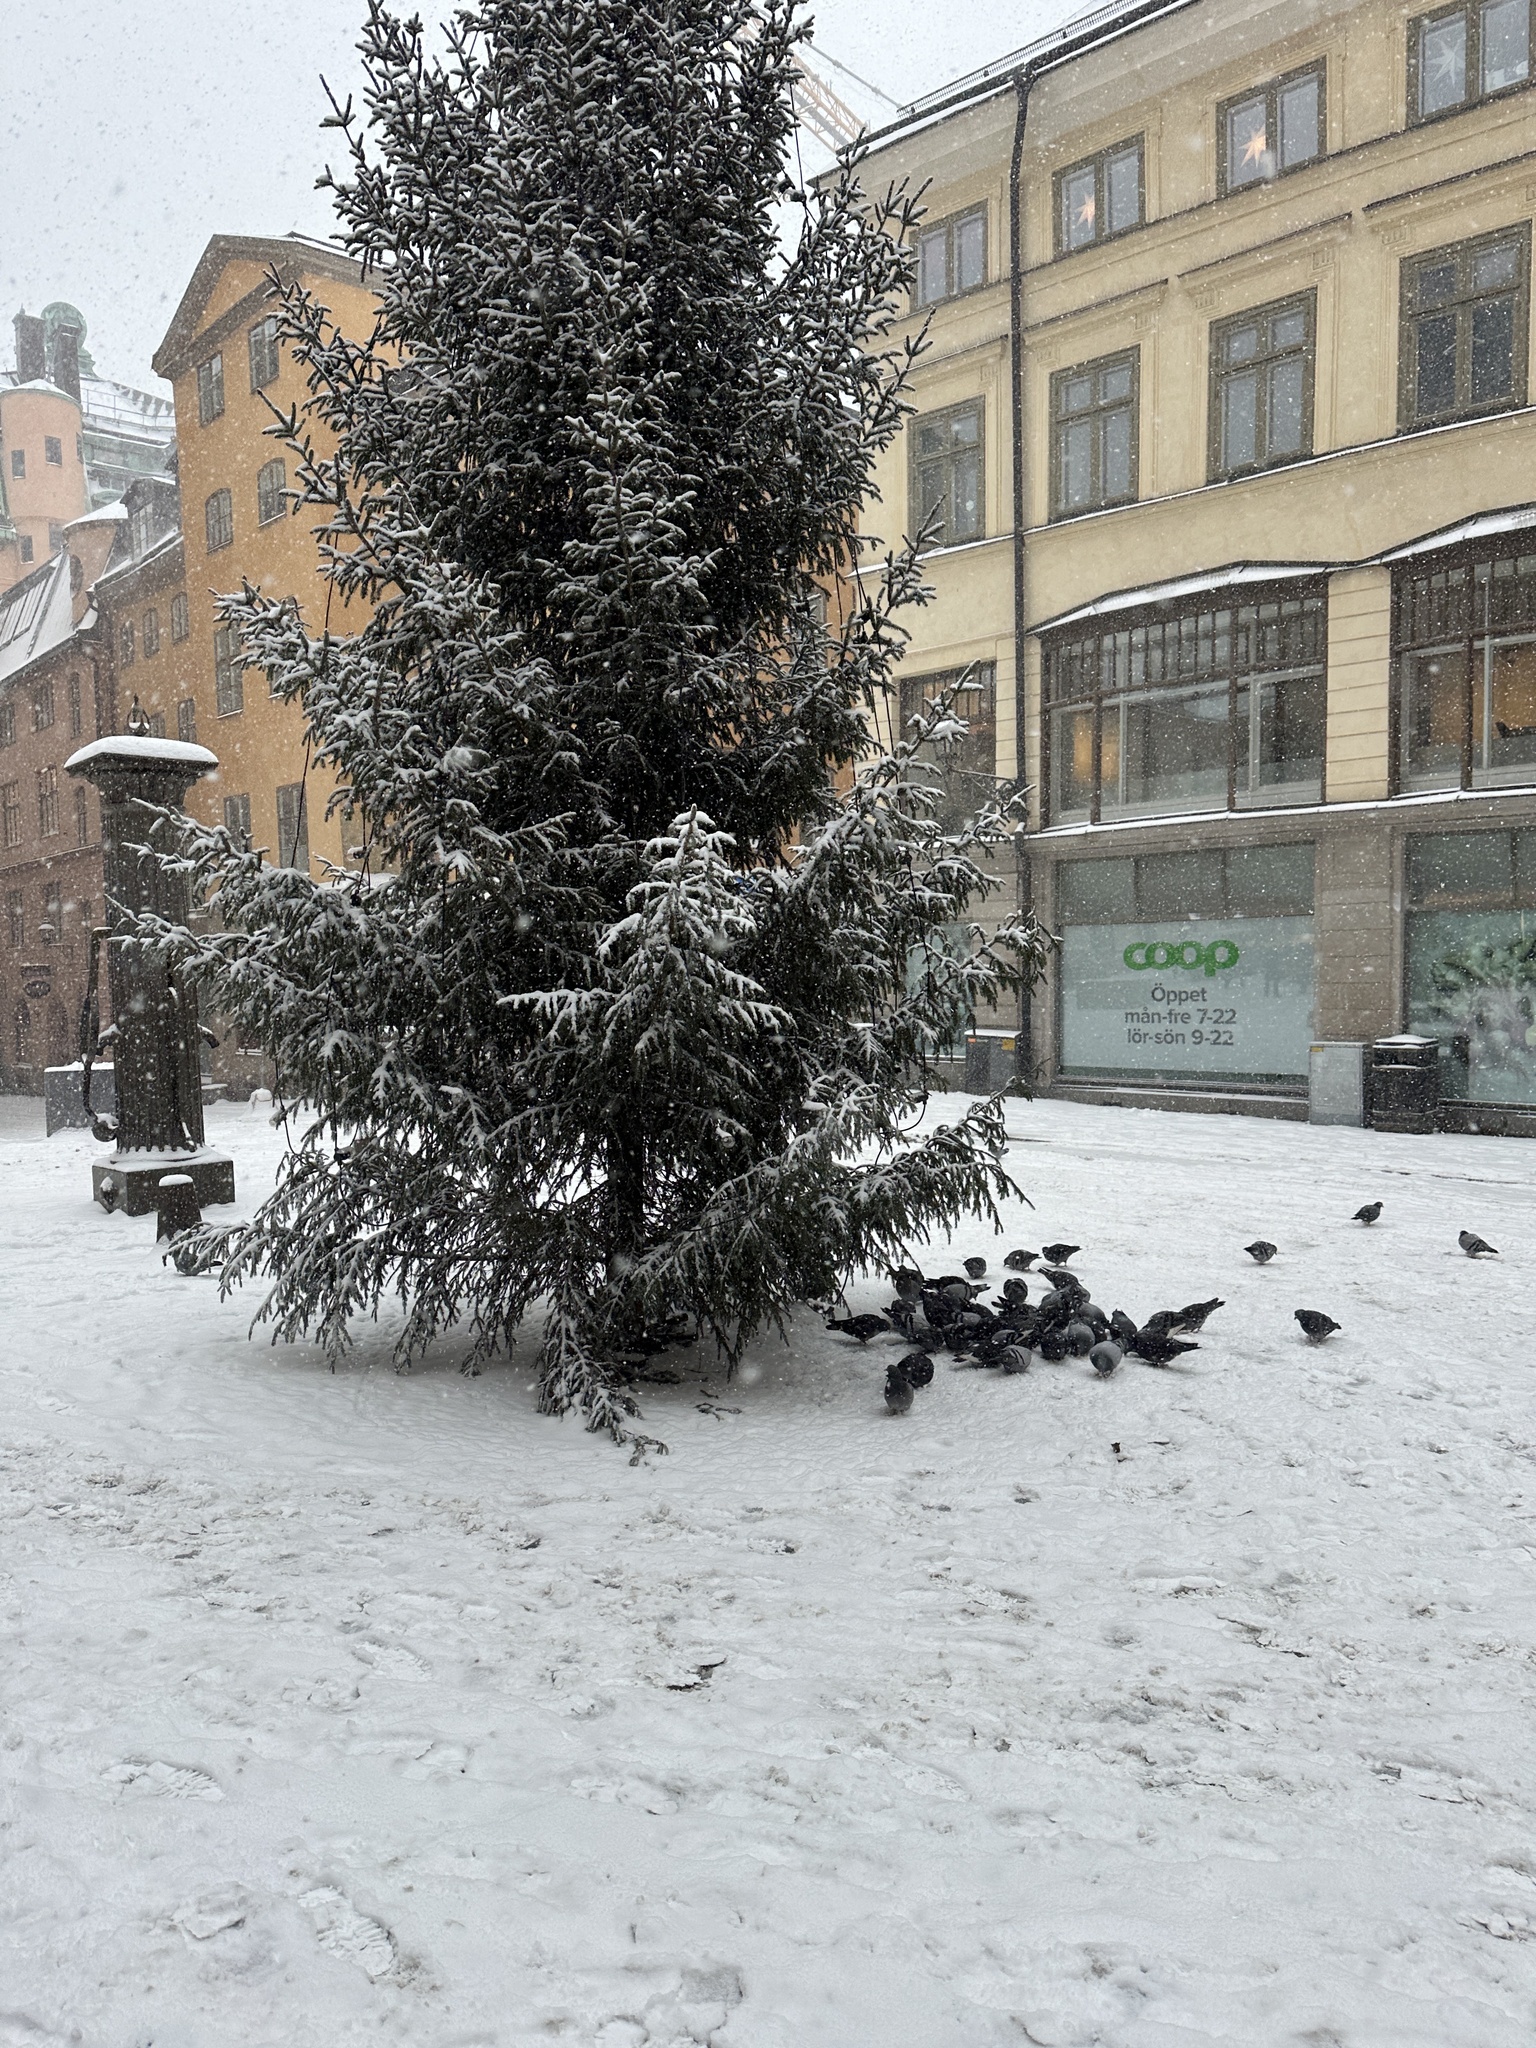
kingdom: Animalia
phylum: Chordata
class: Aves
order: Columbiformes
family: Columbidae
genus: Columba
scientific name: Columba livia
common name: Rock pigeon
